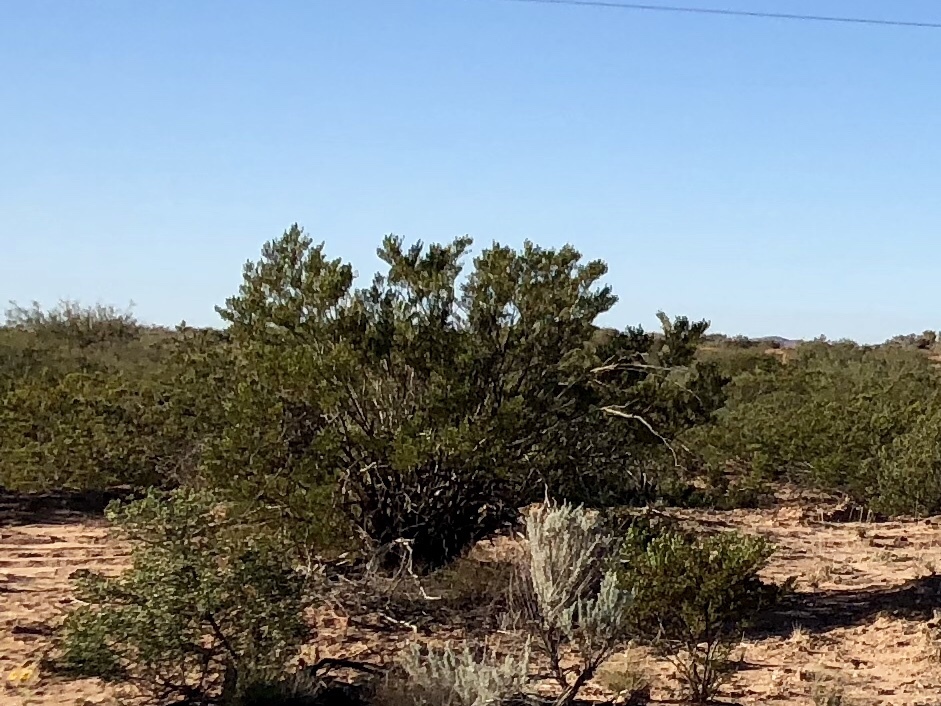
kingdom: Plantae
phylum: Tracheophyta
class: Magnoliopsida
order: Zygophyllales
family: Zygophyllaceae
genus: Larrea
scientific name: Larrea tridentata
